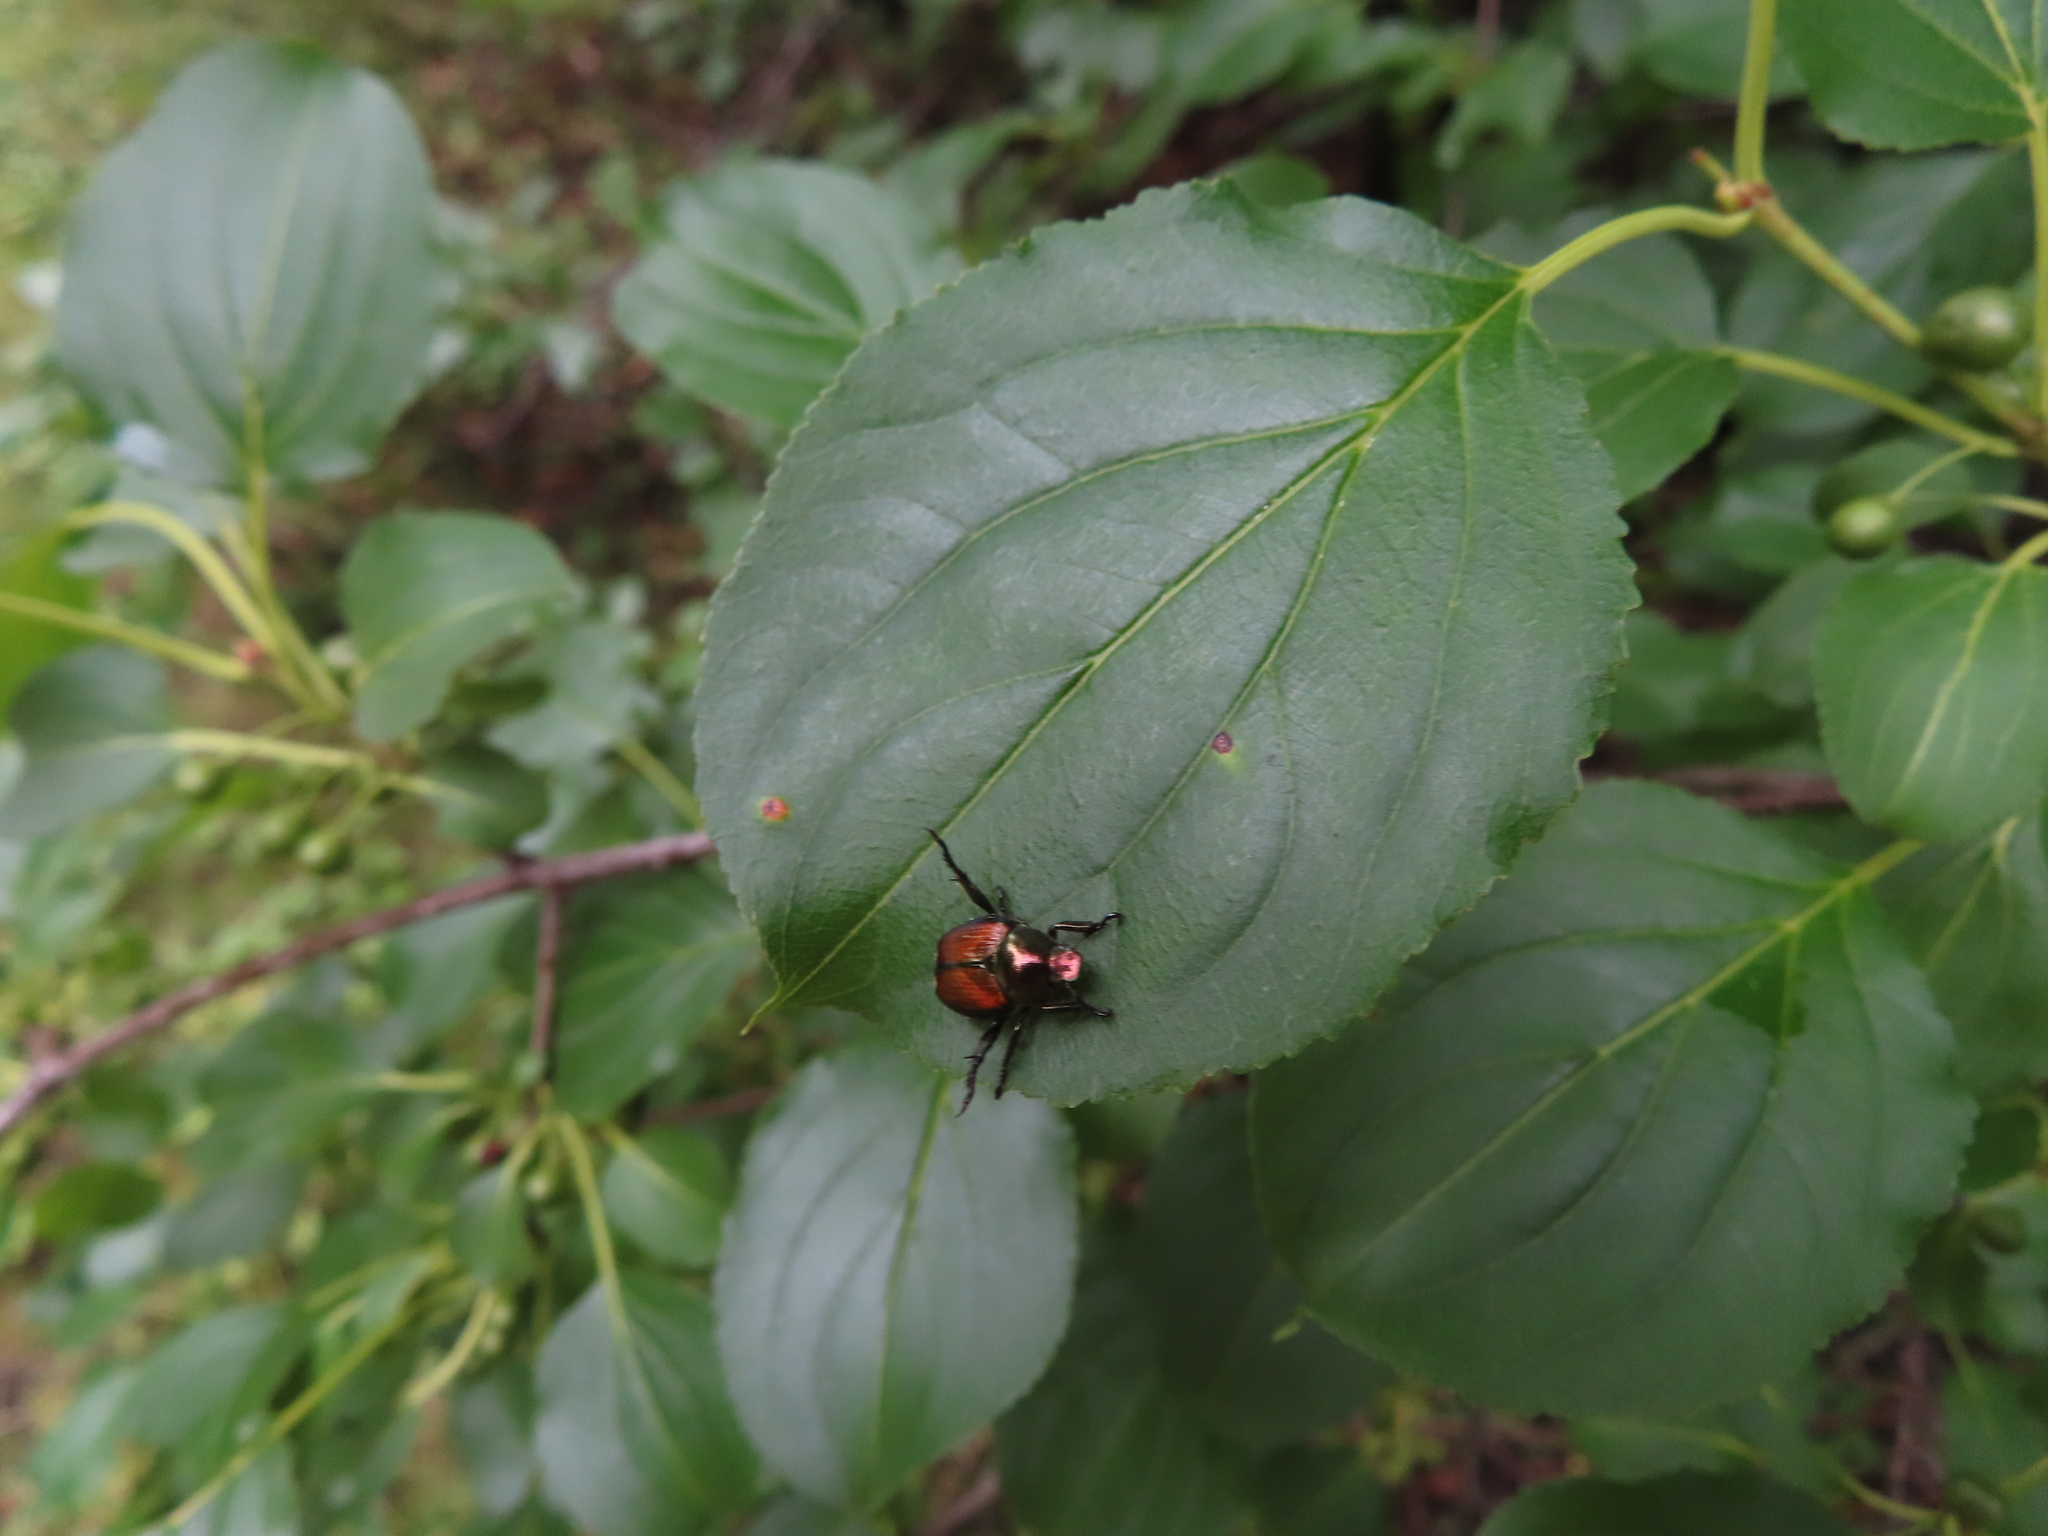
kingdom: Animalia
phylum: Arthropoda
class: Insecta
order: Coleoptera
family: Scarabaeidae
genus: Popillia
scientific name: Popillia japonica
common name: Japanese beetle
